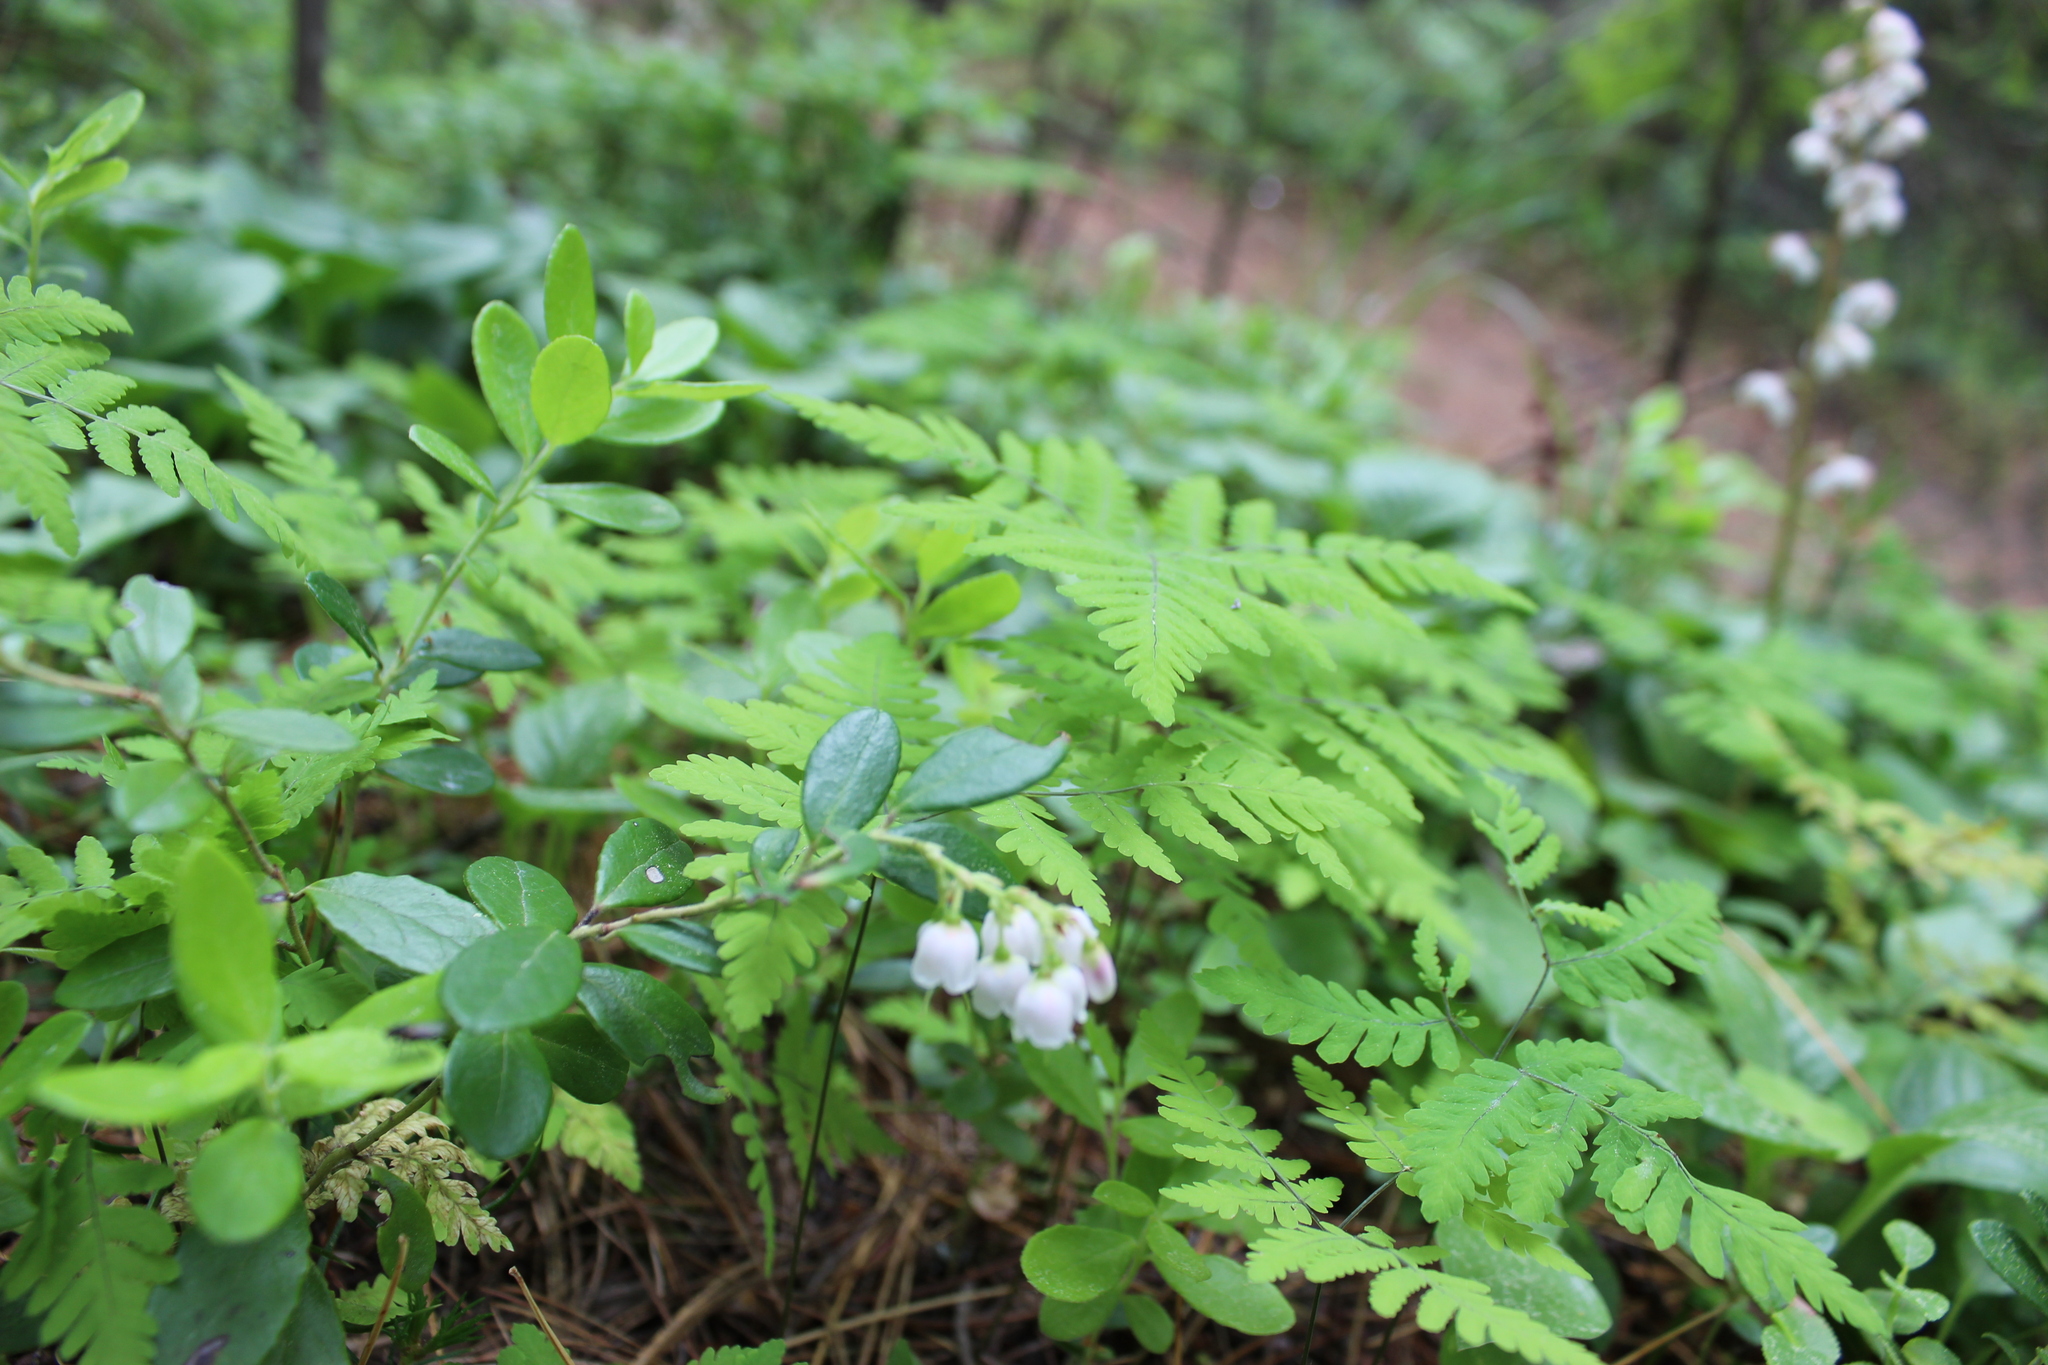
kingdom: Plantae
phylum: Tracheophyta
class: Polypodiopsida
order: Polypodiales
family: Cystopteridaceae
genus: Gymnocarpium
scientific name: Gymnocarpium dryopteris
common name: Oak fern
